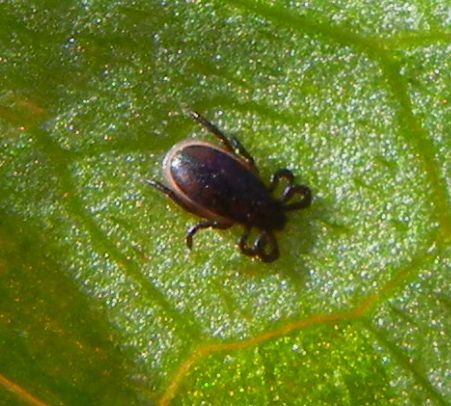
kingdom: Animalia
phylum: Arthropoda
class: Arachnida
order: Ixodida
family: Ixodidae
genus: Ixodes
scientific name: Ixodes ricinus
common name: Castor bean tick
